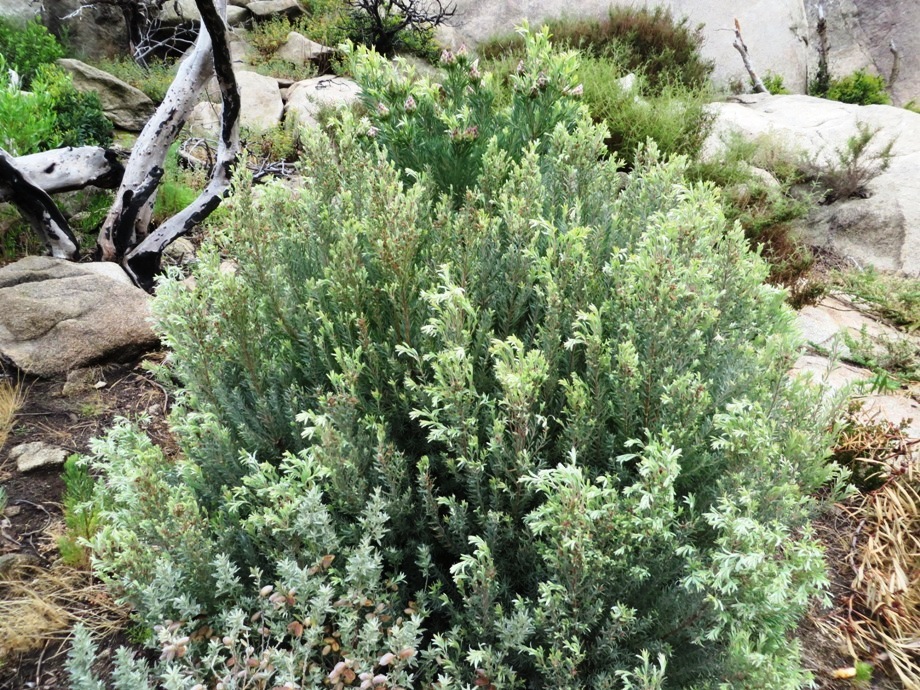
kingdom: Plantae
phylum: Tracheophyta
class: Magnoliopsida
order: Proteales
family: Proteaceae
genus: Leucadendron
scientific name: Leucadendron rubrum
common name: Spinning top
